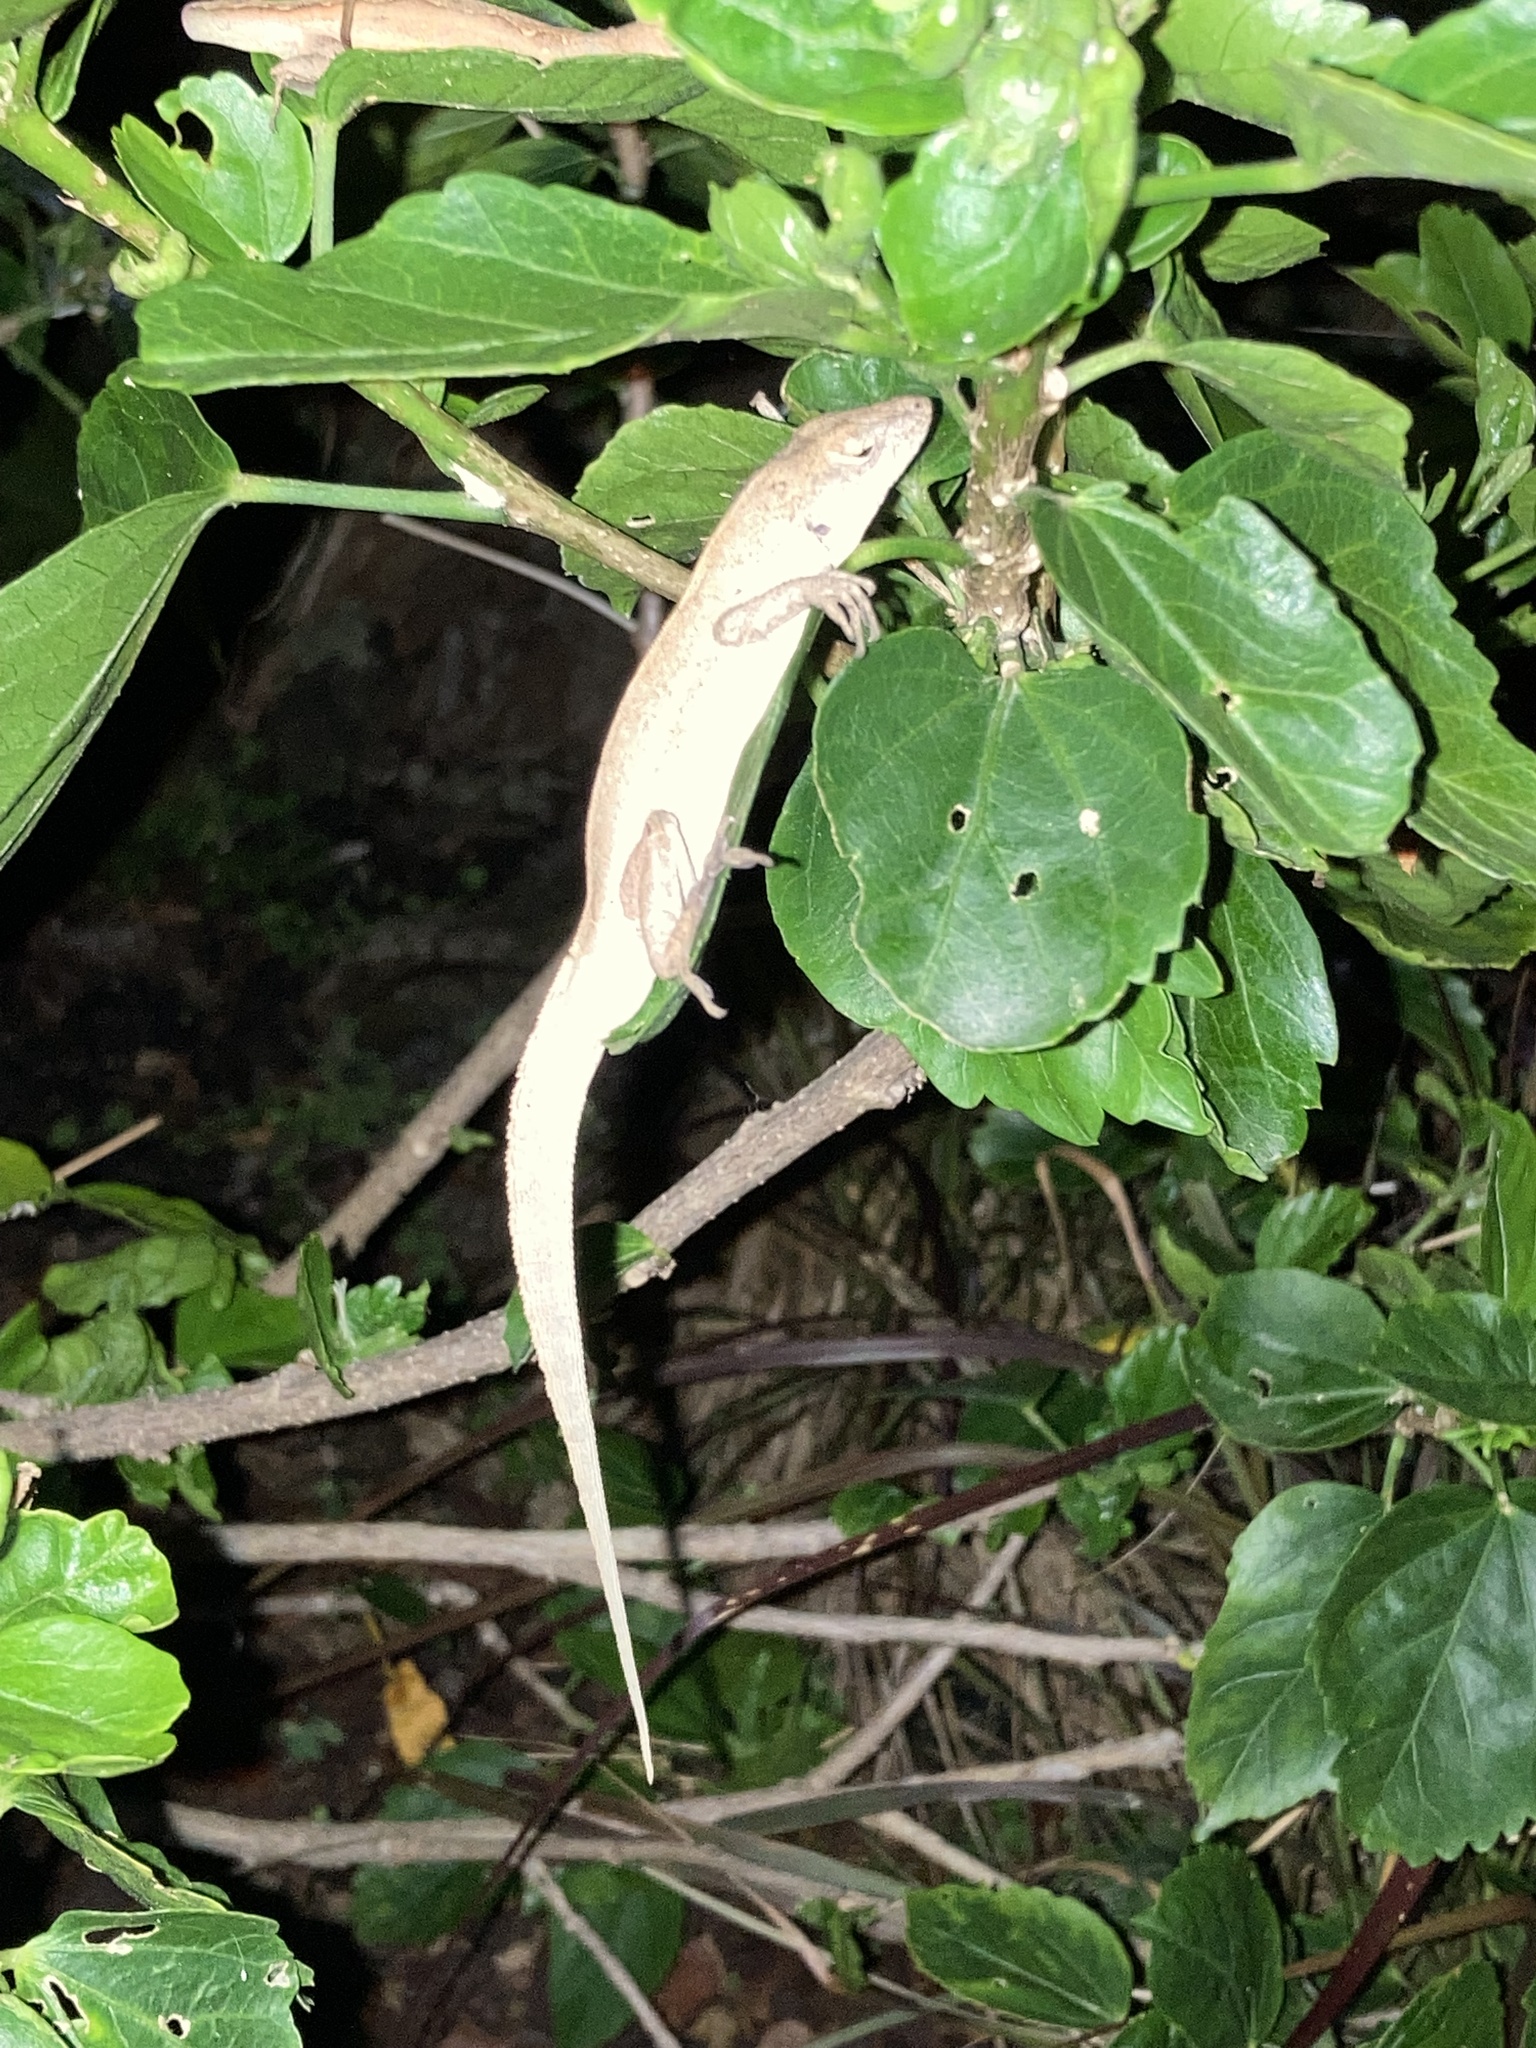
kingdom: Animalia
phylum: Chordata
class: Squamata
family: Dactyloidae
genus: Anolis
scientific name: Anolis sagrei
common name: Brown anole
